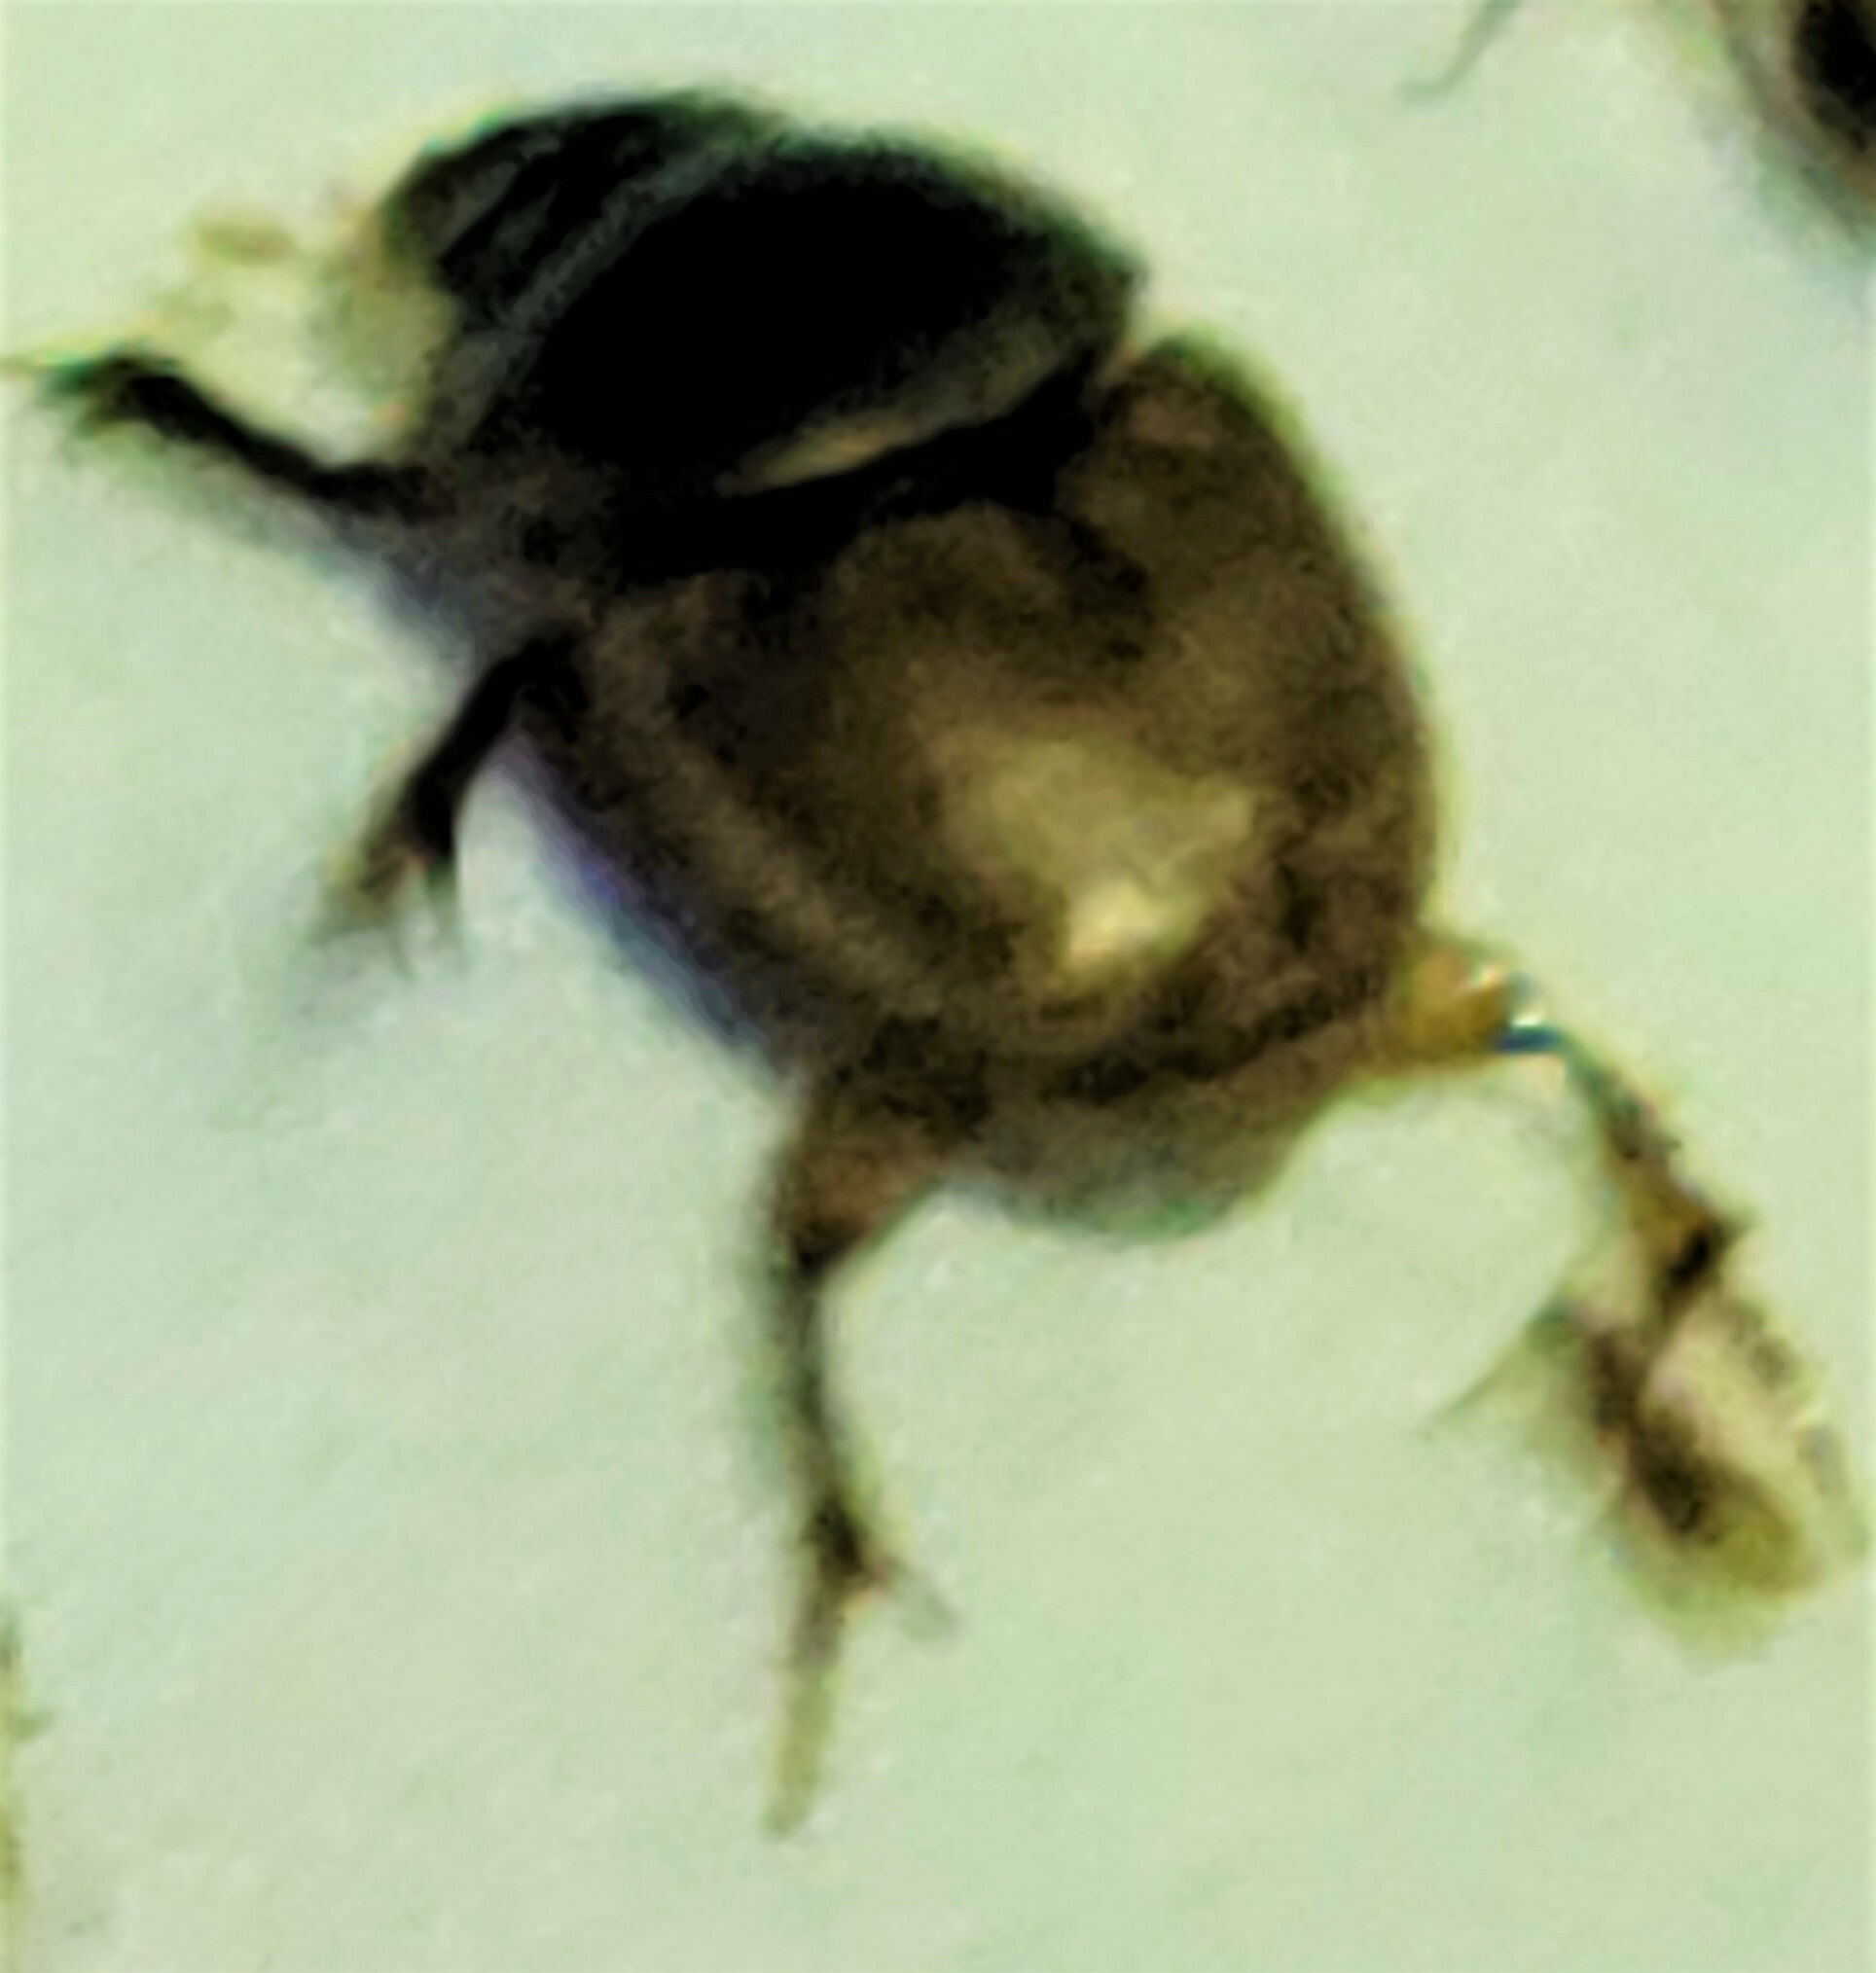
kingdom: Animalia
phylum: Arthropoda
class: Insecta
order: Coleoptera
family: Scarabaeidae
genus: Digitonthophagus
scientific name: Digitonthophagus gazella
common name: Brown dung beetle
